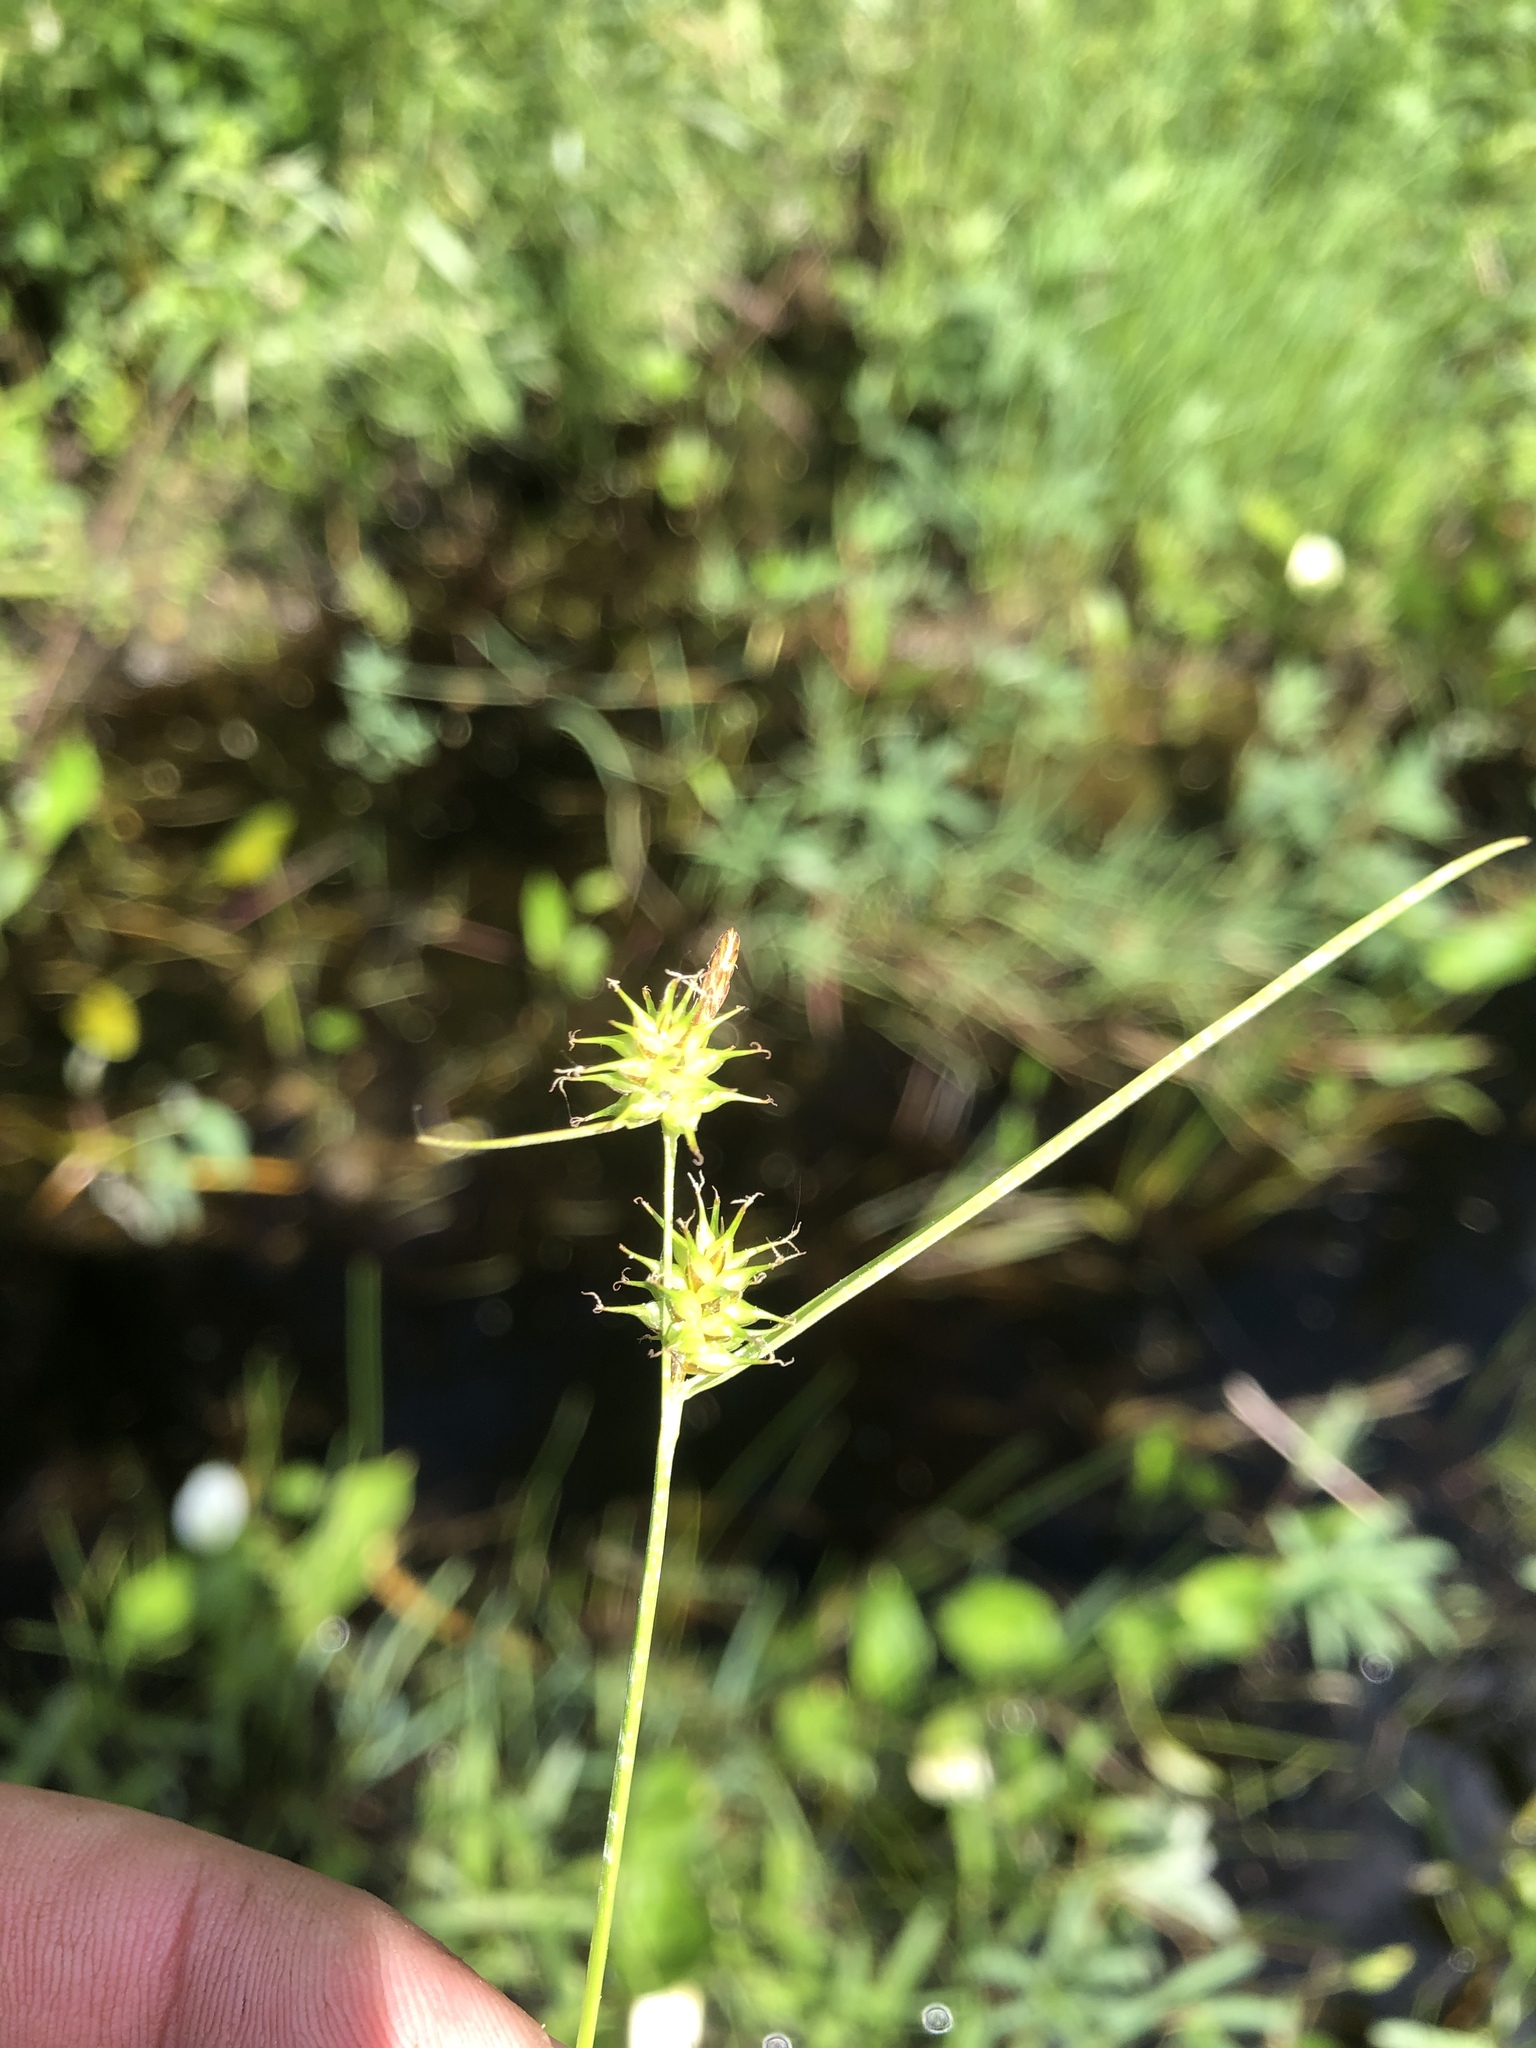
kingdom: Plantae
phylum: Tracheophyta
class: Liliopsida
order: Poales
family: Cyperaceae
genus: Carex
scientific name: Carex flava
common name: Large yellow-sedge
